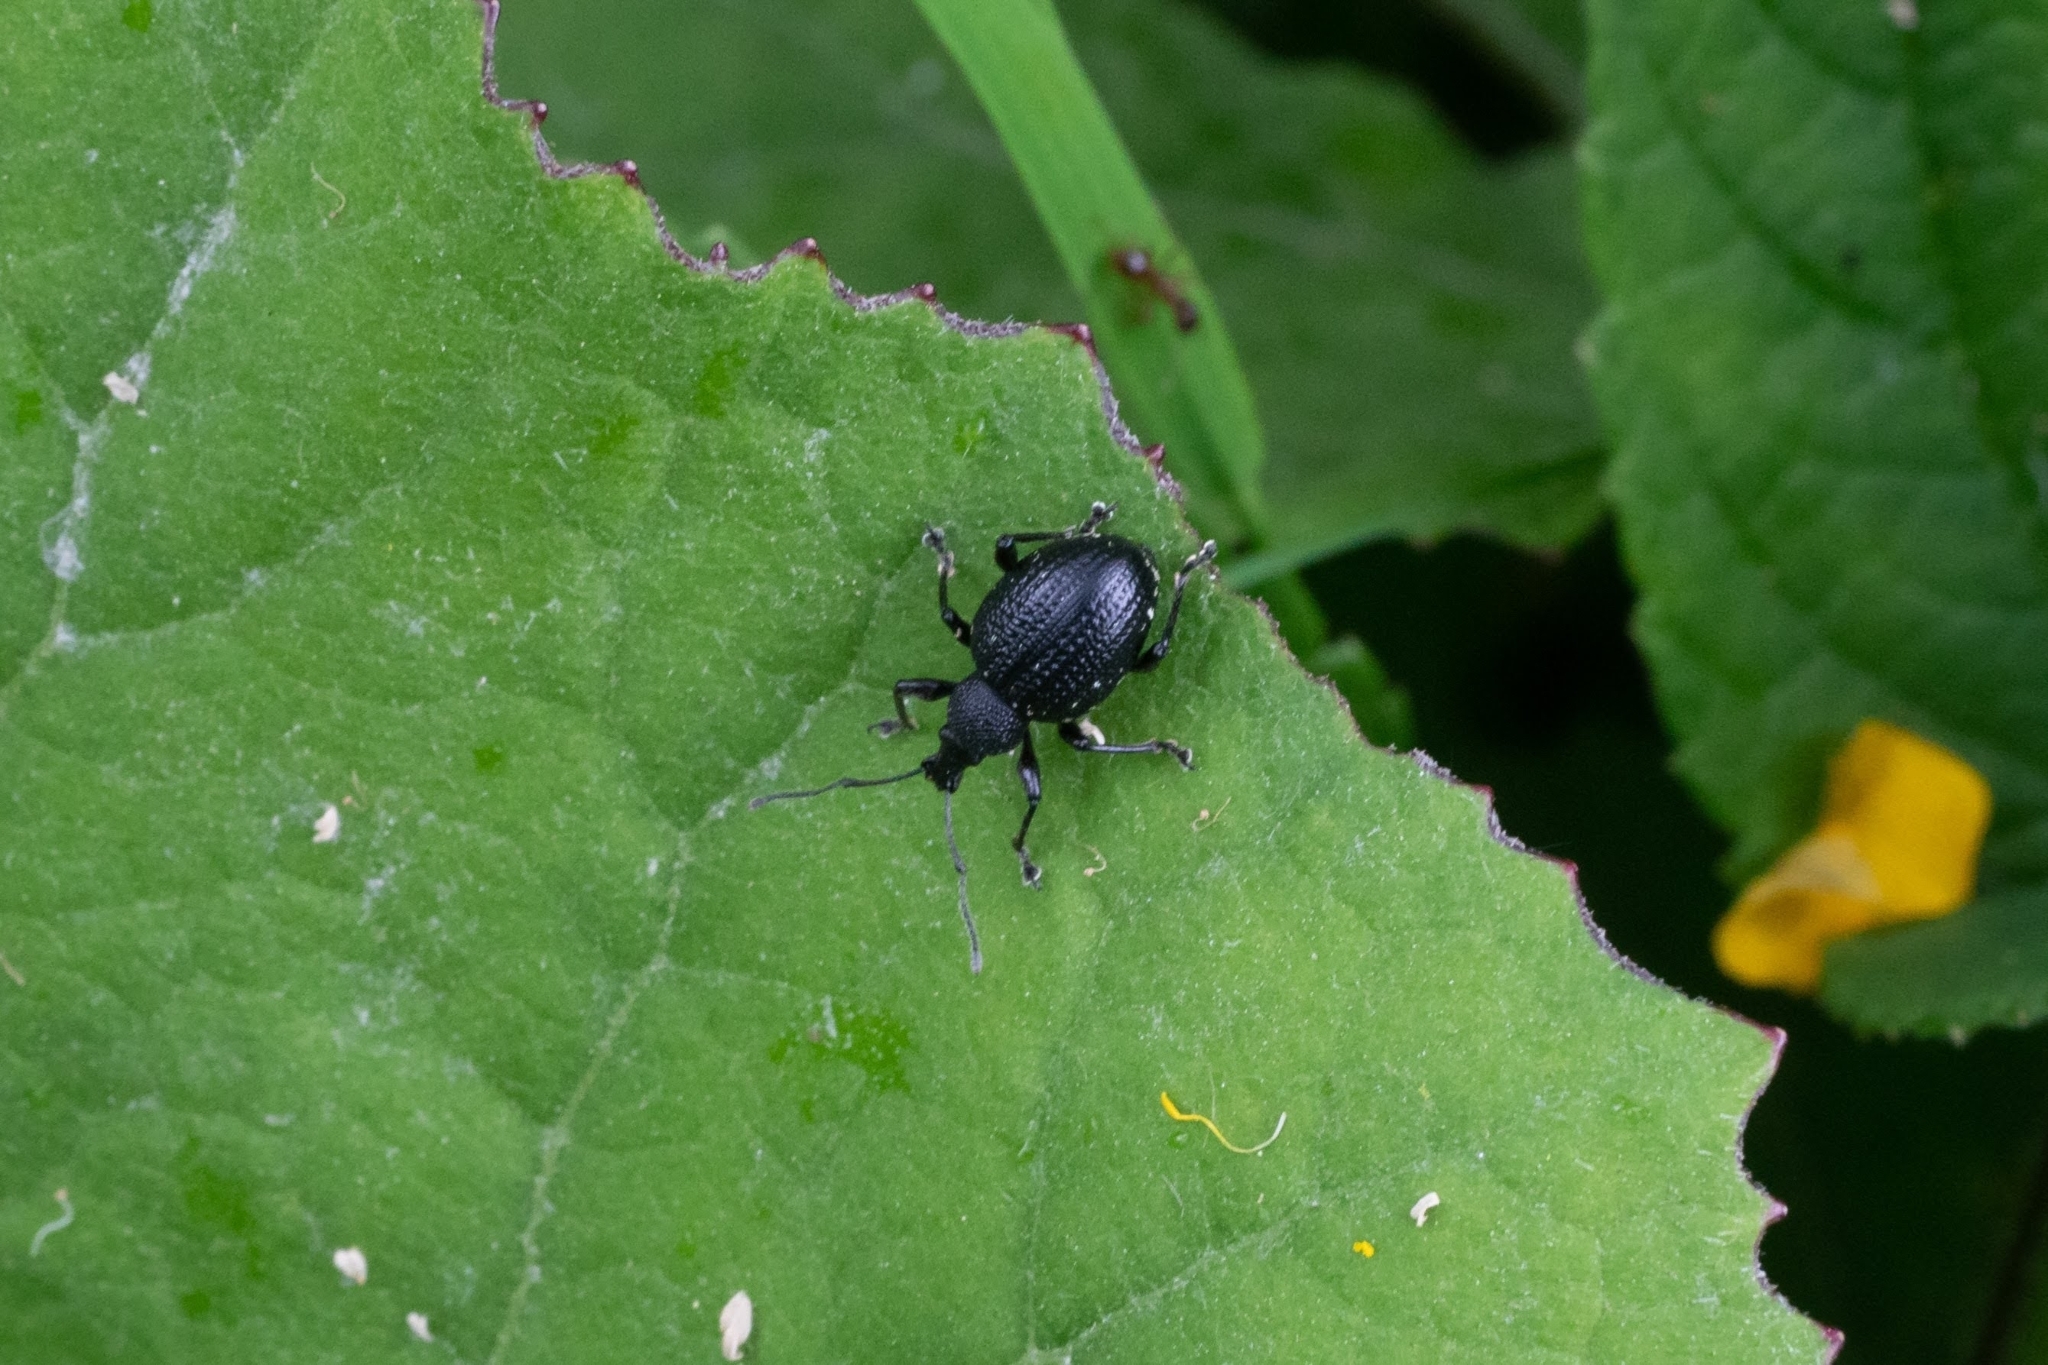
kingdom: Animalia
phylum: Arthropoda
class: Insecta
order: Coleoptera
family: Curculionidae
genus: Otiorhynchus
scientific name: Otiorhynchus gemmatus
